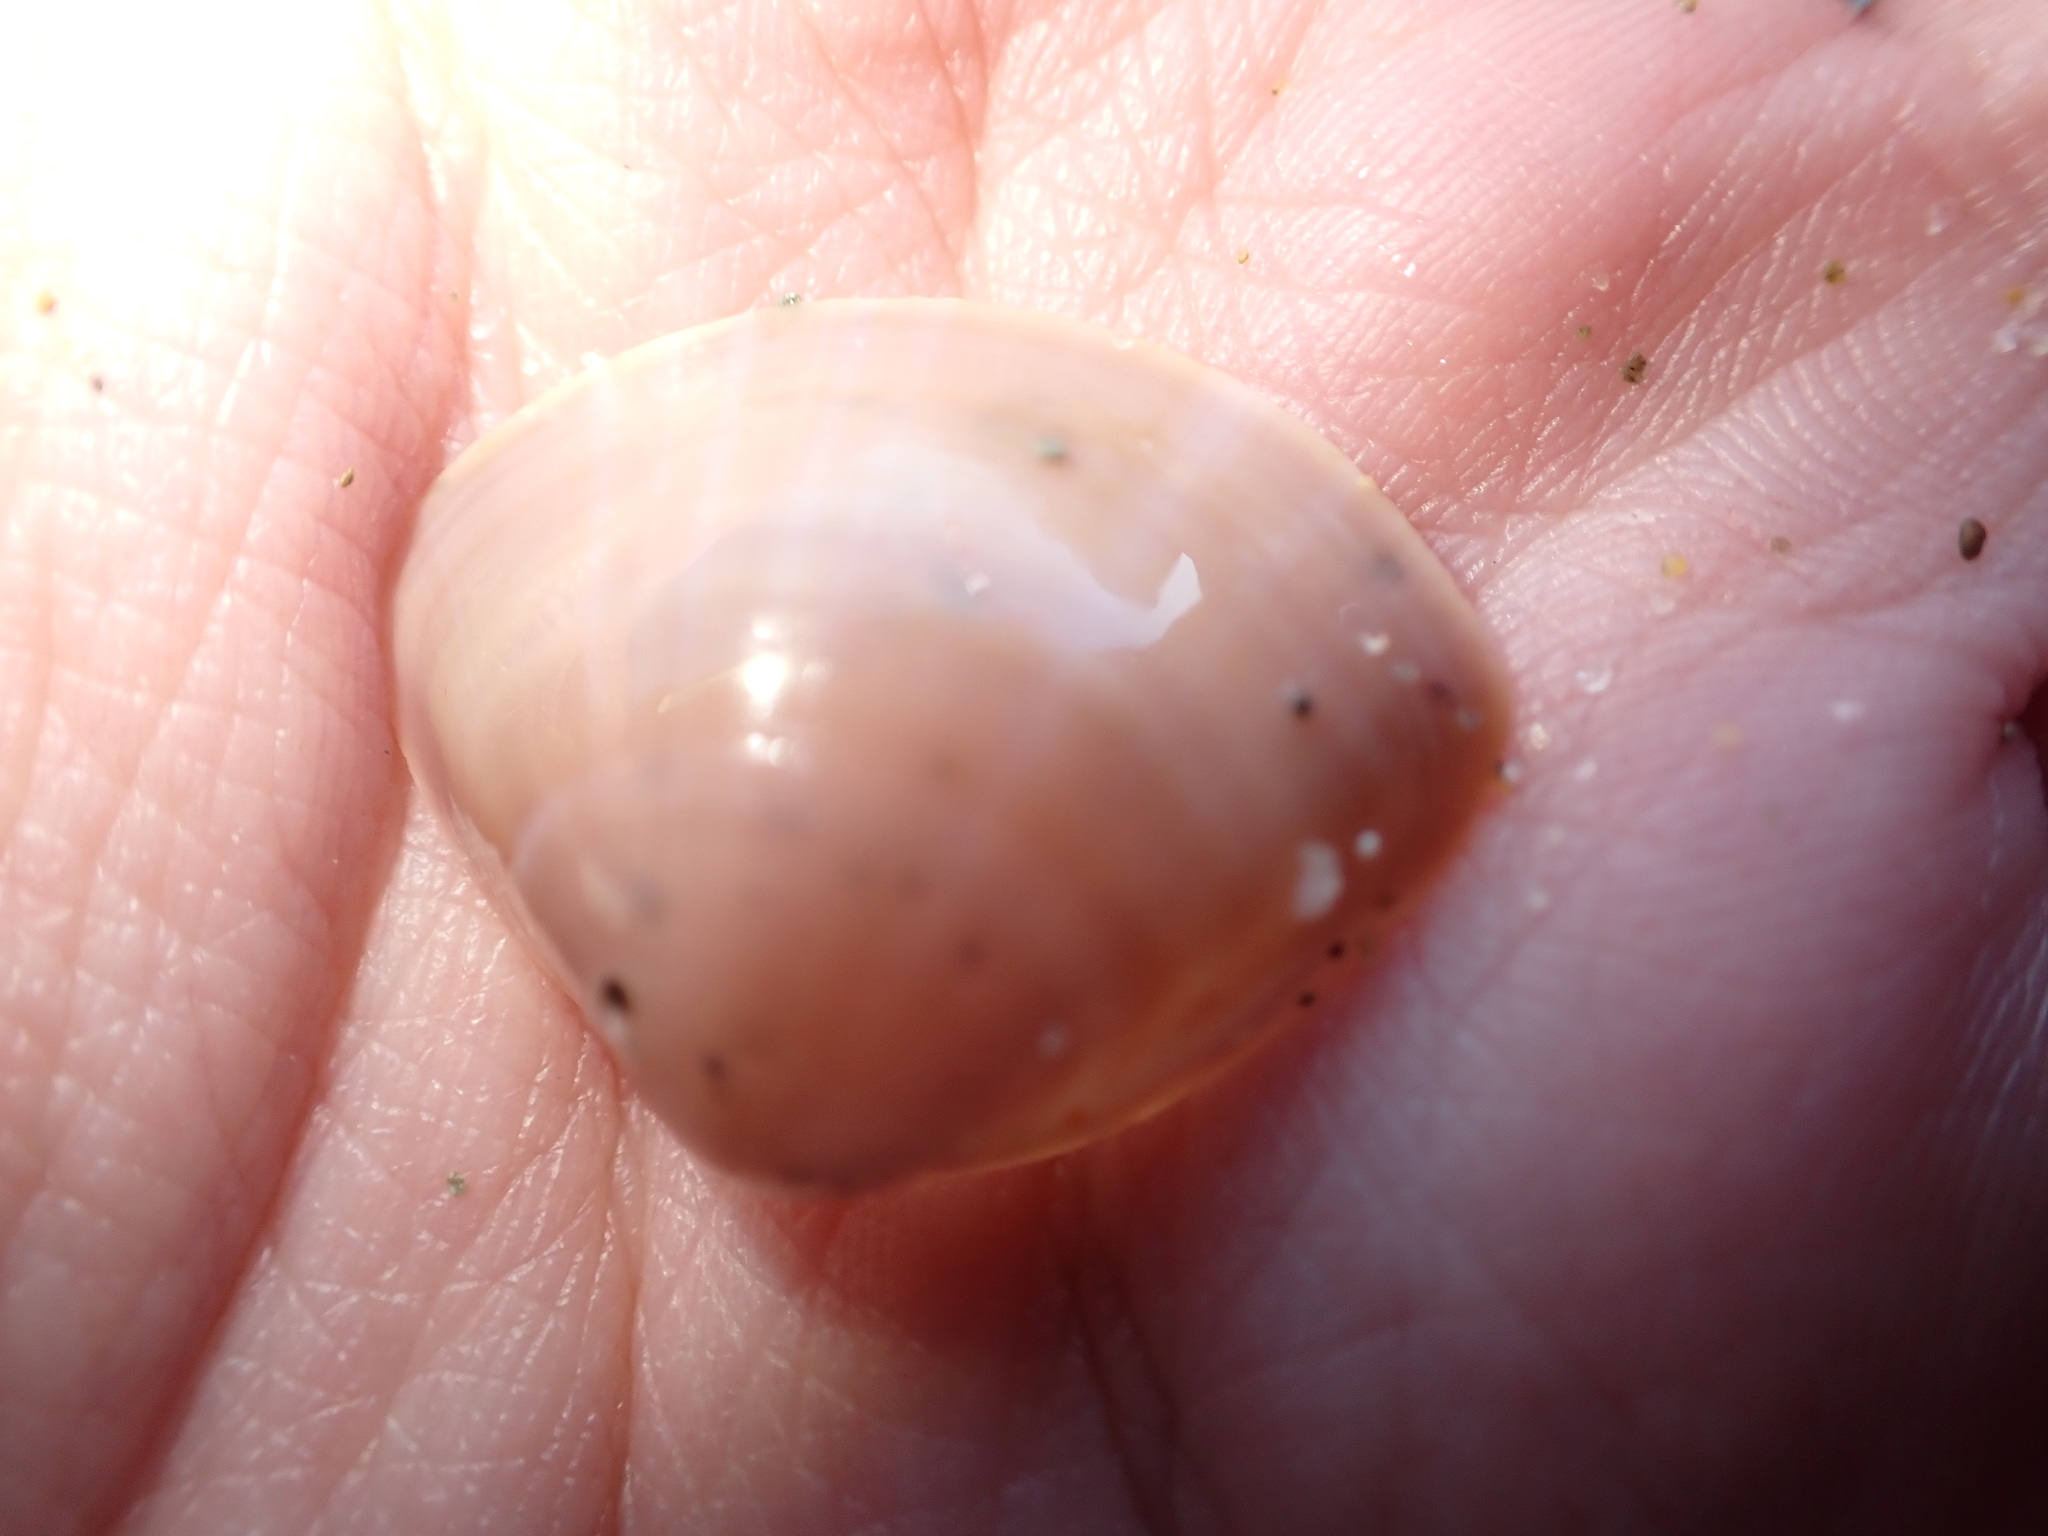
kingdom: Animalia
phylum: Mollusca
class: Bivalvia
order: Venerida
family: Mactridae
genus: Mactra
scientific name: Mactra stultorum
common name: Rayed trough shell
